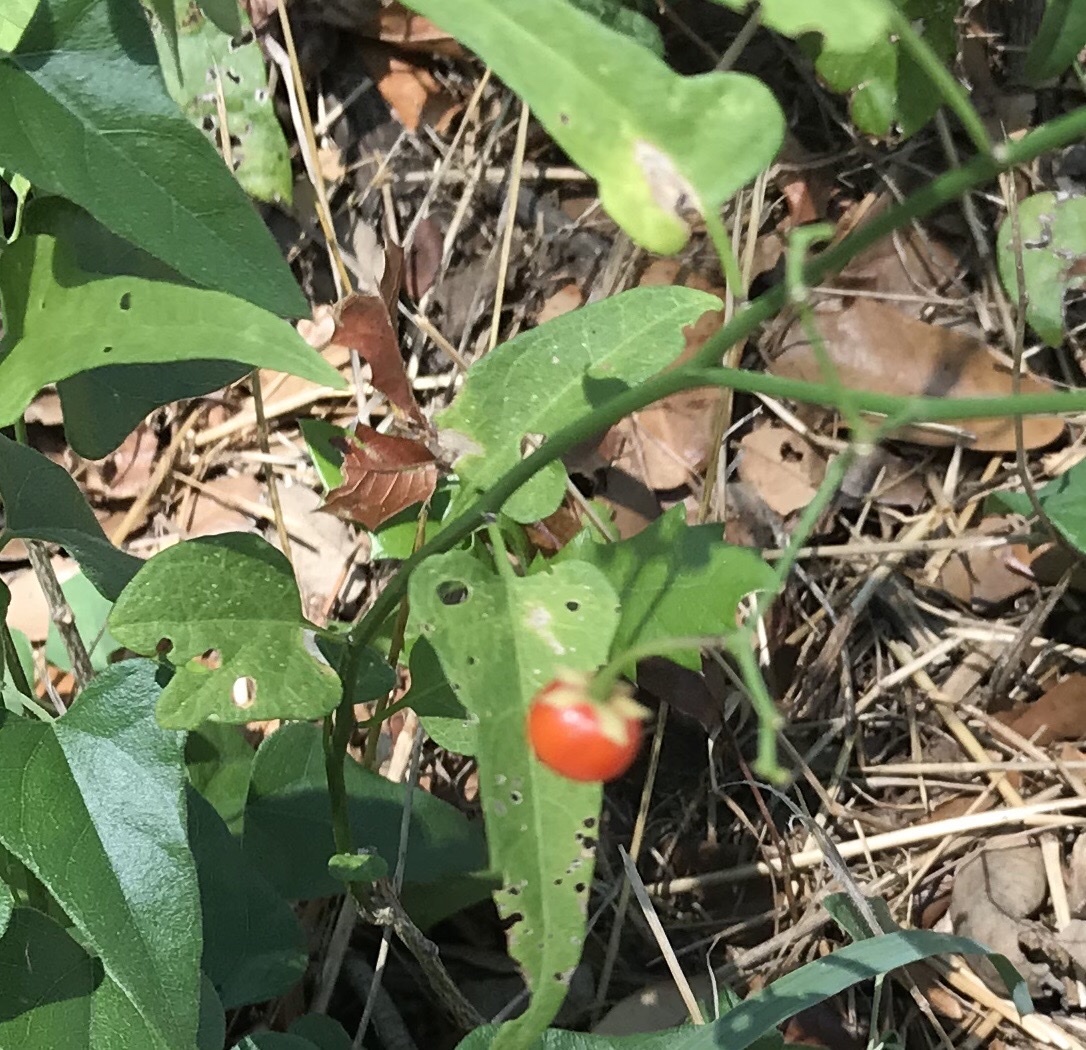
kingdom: Plantae
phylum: Tracheophyta
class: Magnoliopsida
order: Solanales
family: Solanaceae
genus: Solanum
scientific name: Solanum triquetrum
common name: Texas nightshade
